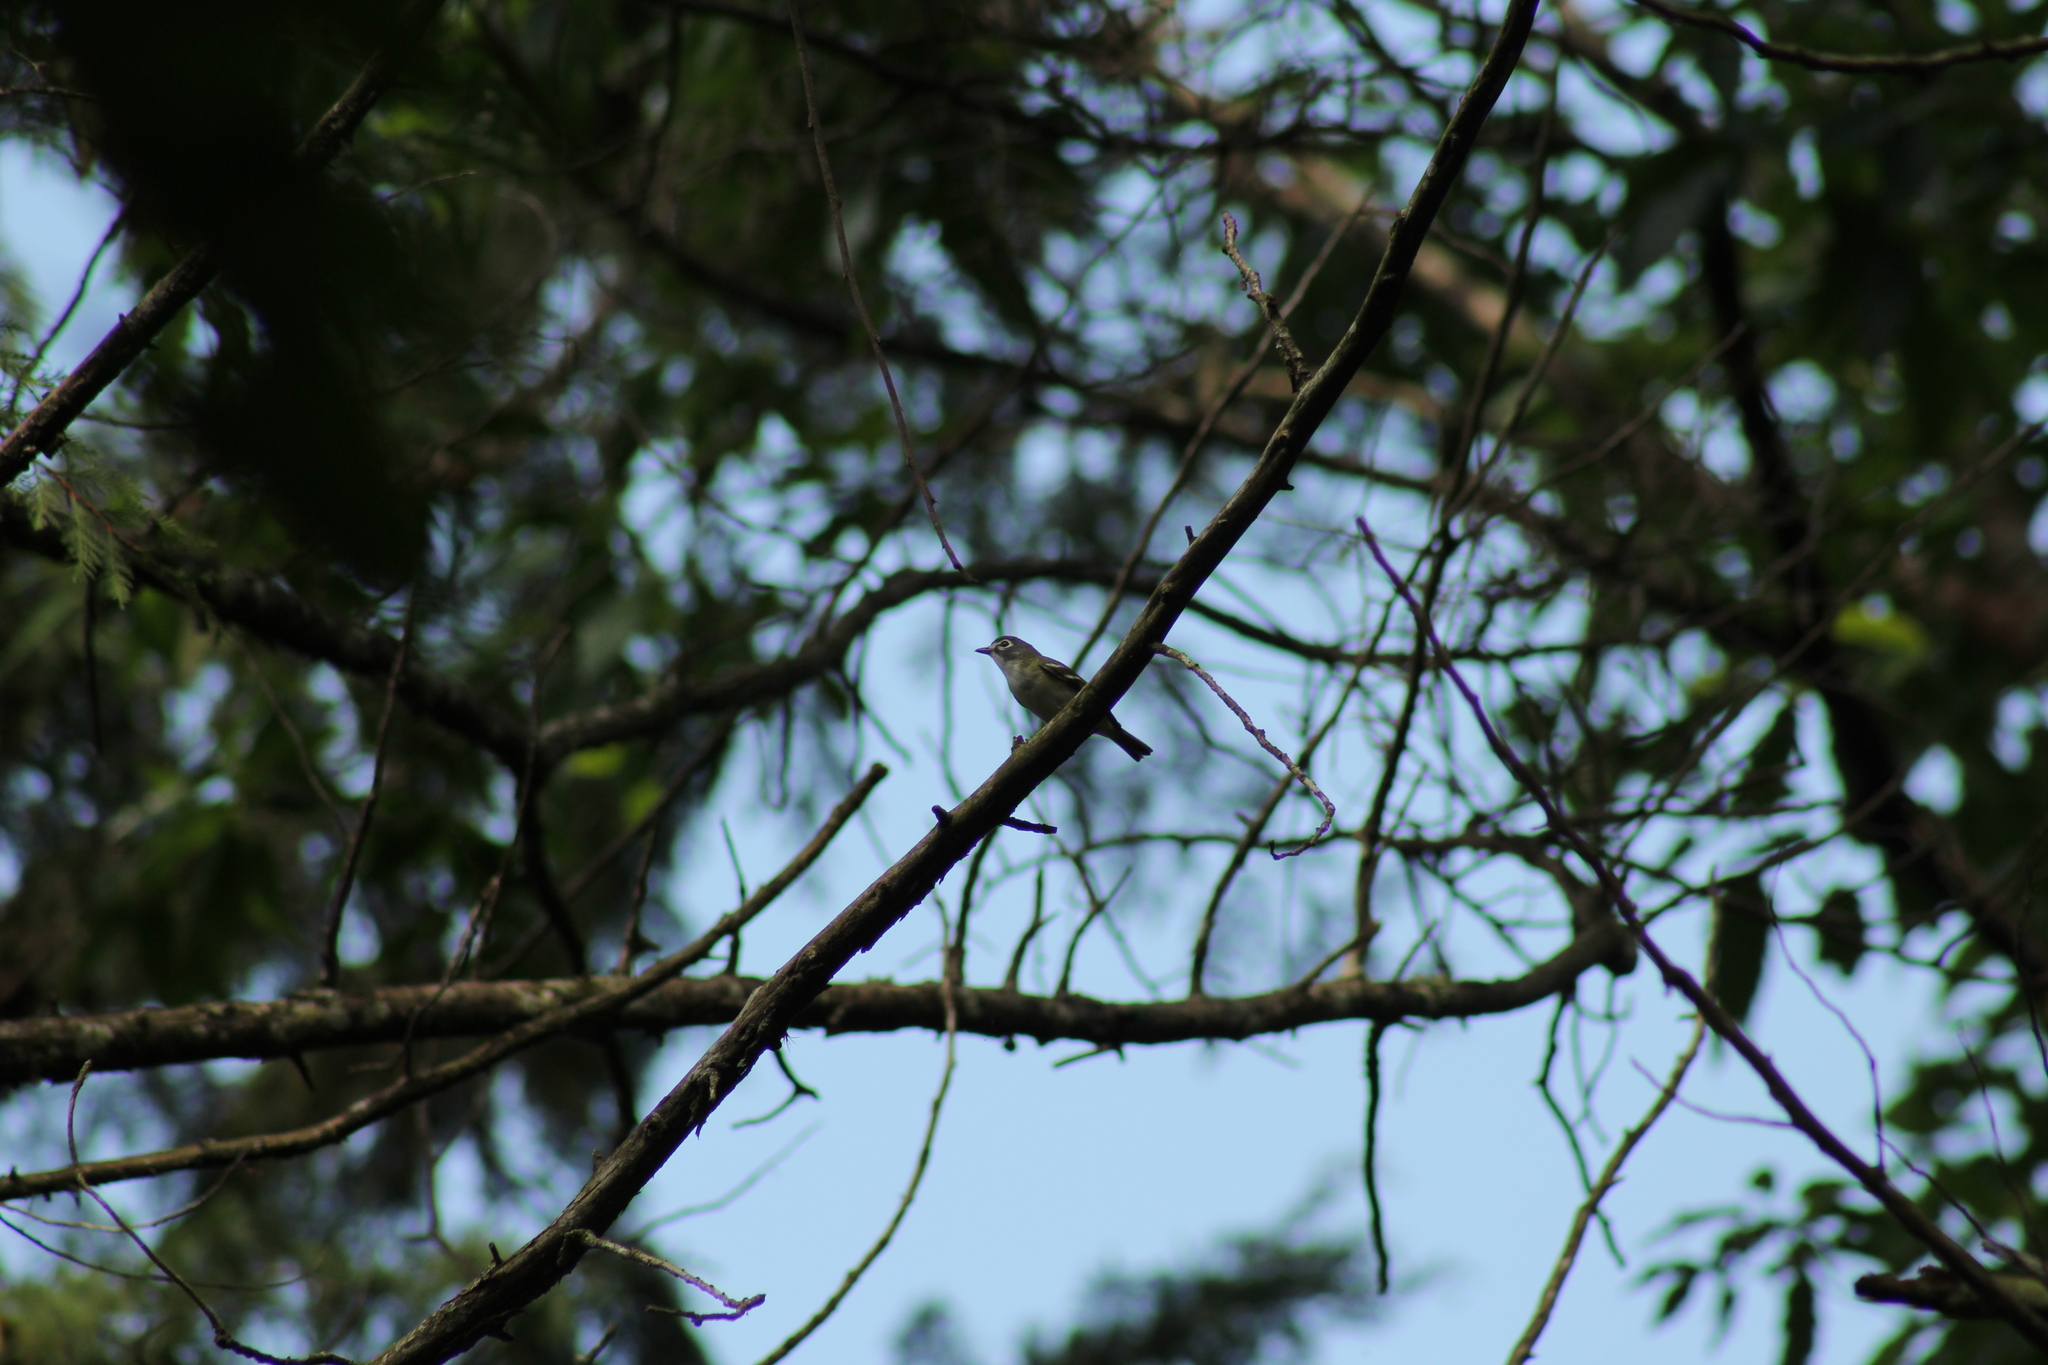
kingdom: Animalia
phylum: Chordata
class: Aves
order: Passeriformes
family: Vireonidae
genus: Vireo
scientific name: Vireo solitarius
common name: Blue-headed vireo
